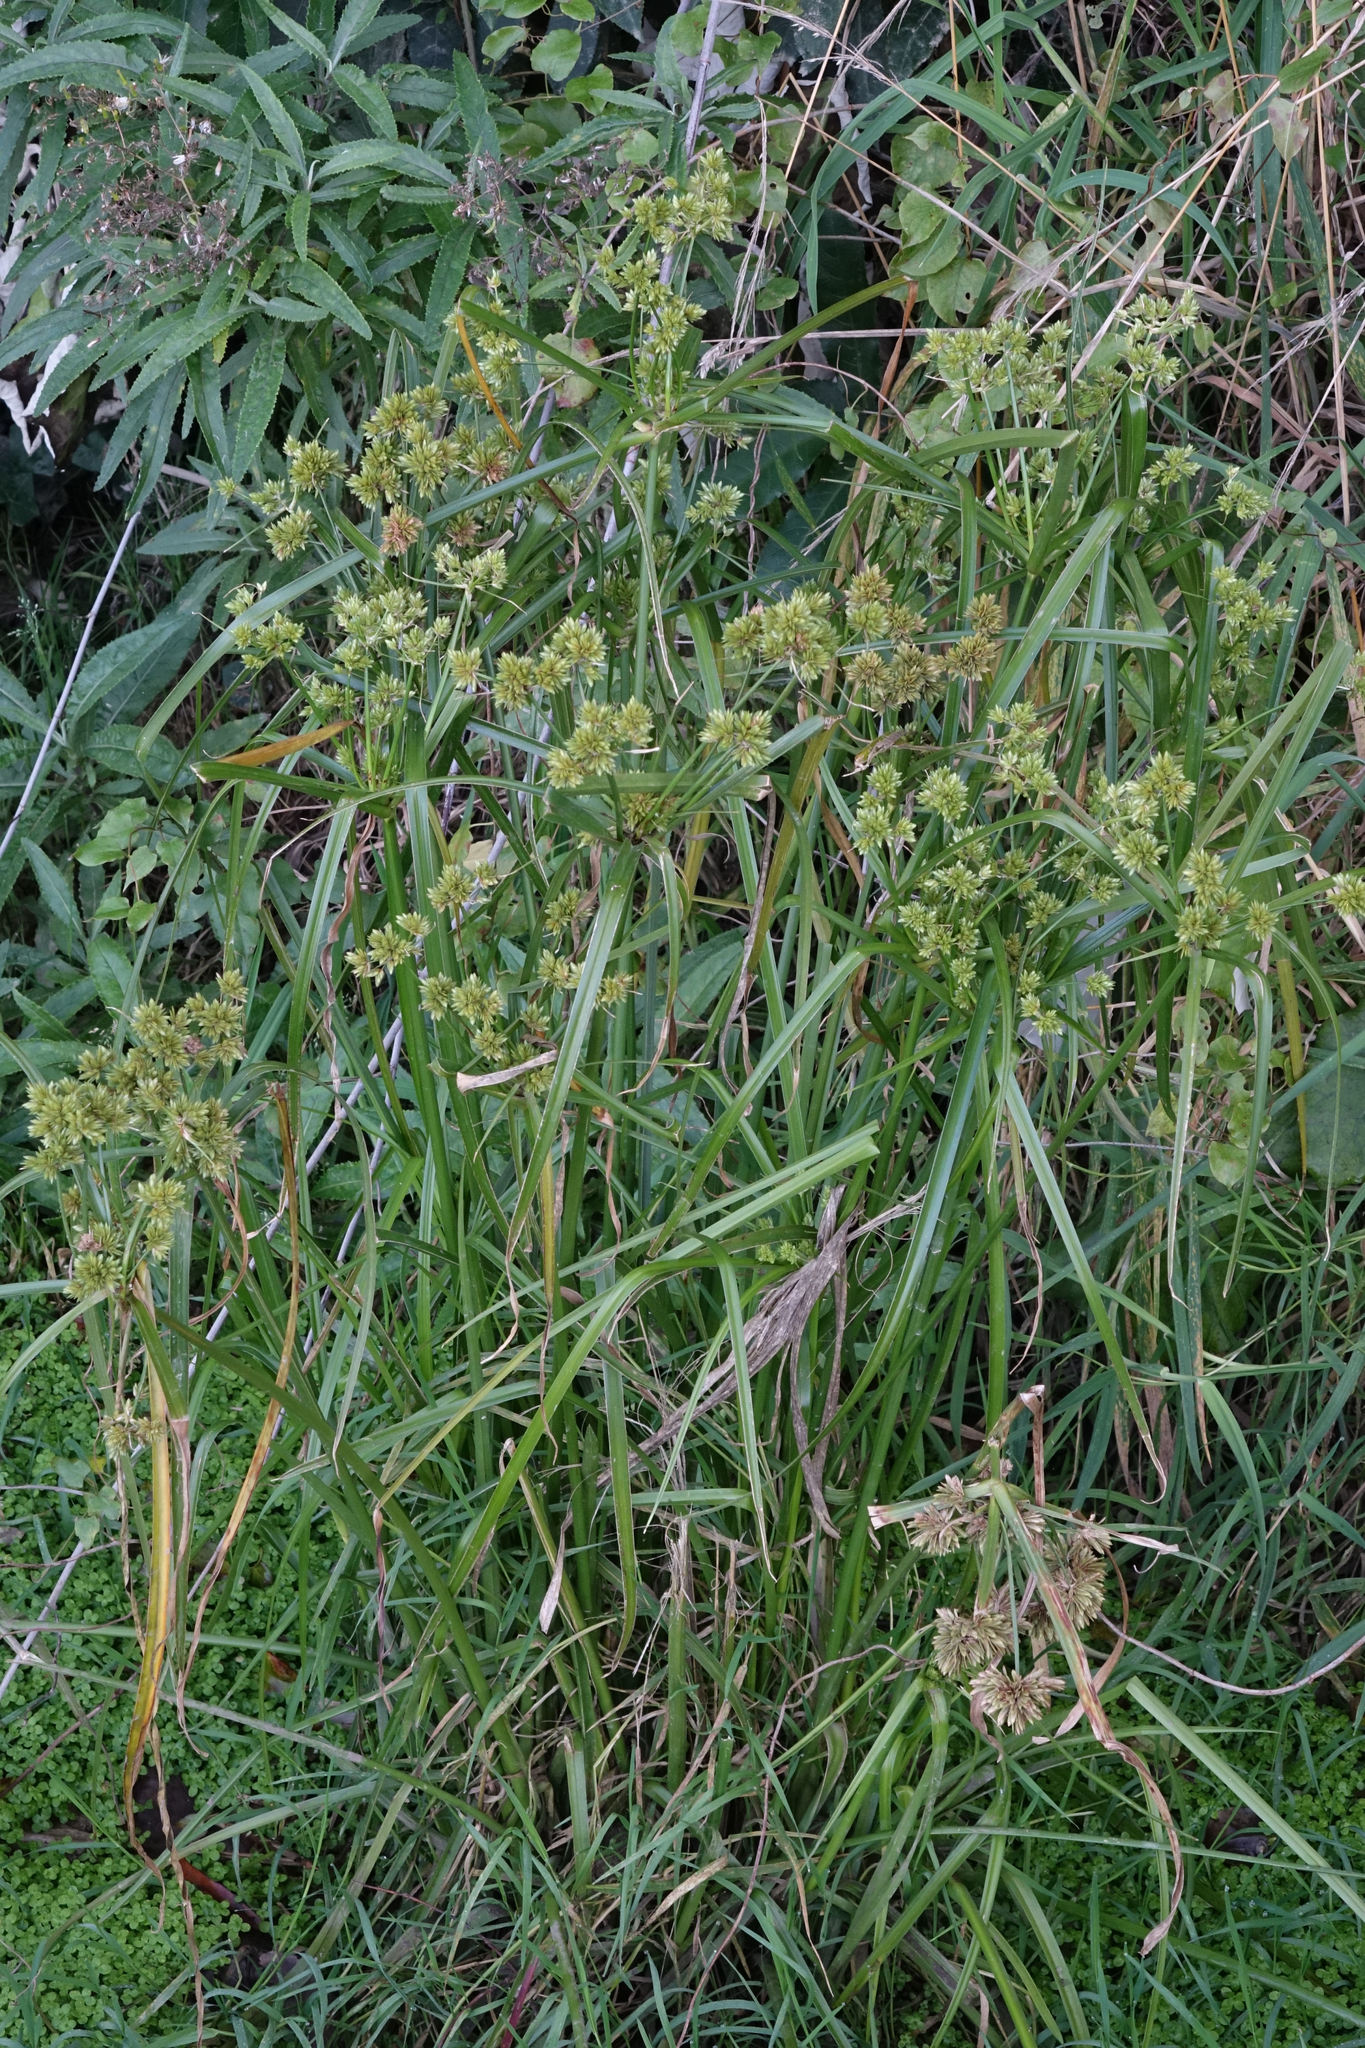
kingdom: Plantae
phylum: Tracheophyta
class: Liliopsida
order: Poales
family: Cyperaceae
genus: Cyperus
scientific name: Cyperus eragrostis
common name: Tall flatsedge
